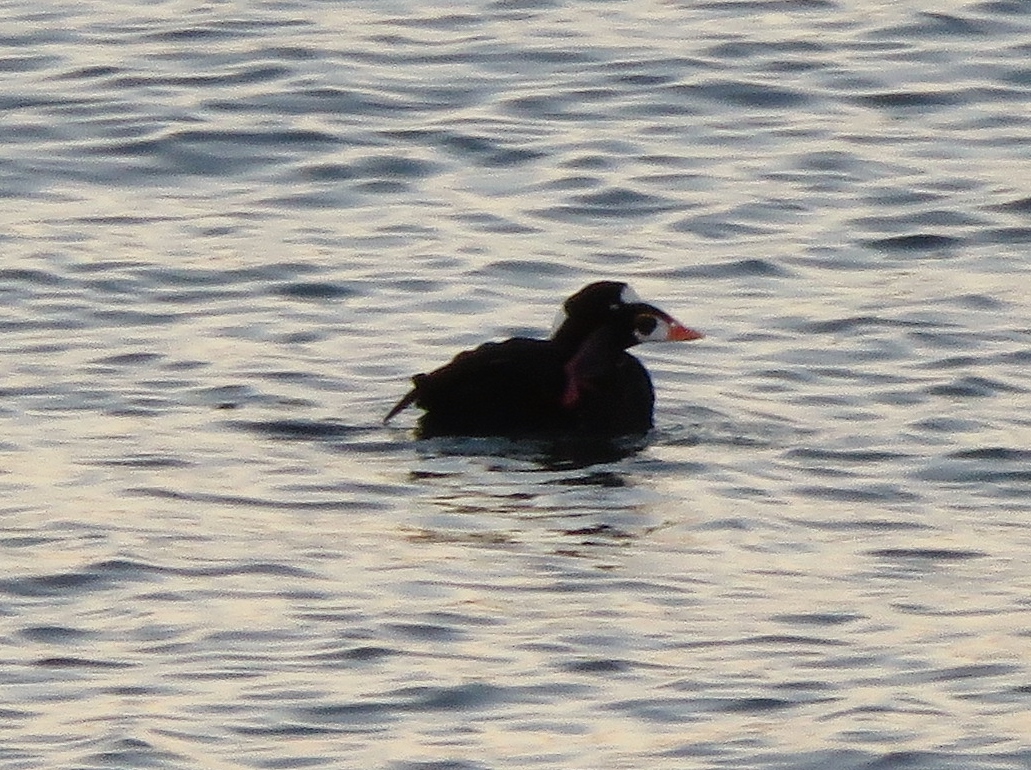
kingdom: Animalia
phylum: Chordata
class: Aves
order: Anseriformes
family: Anatidae
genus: Melanitta
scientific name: Melanitta perspicillata
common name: Surf scoter
